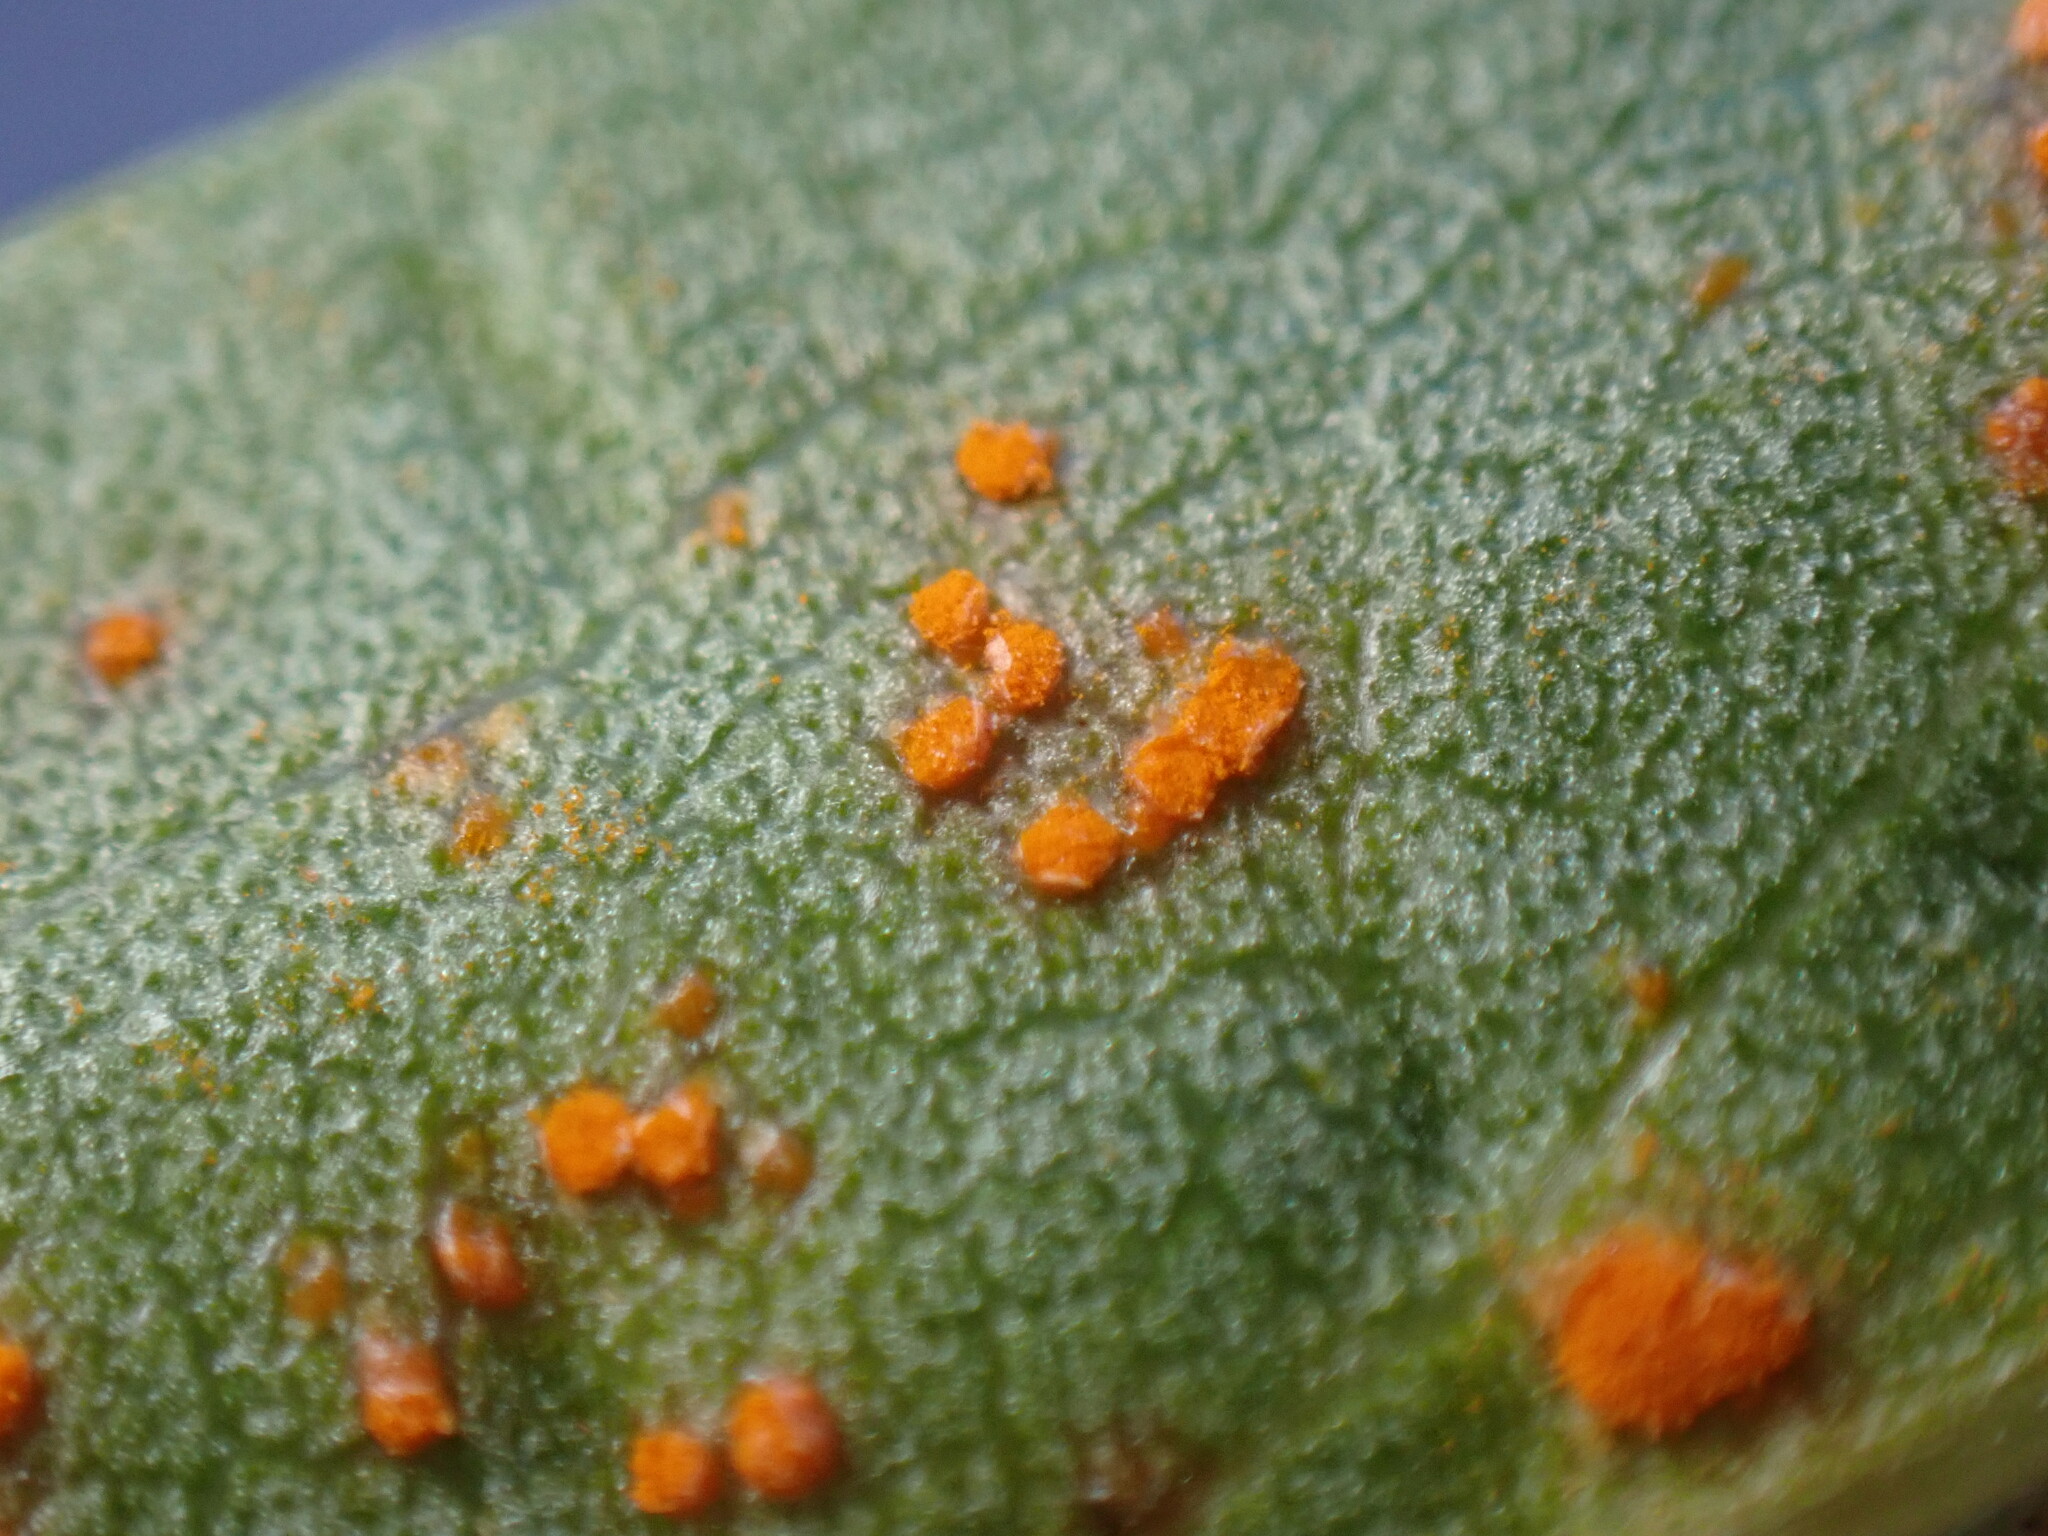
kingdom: Fungi
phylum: Basidiomycota
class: Pucciniomycetes
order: Pucciniales
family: Coleosporiaceae
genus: Coleosporium
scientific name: Coleosporium asterum
